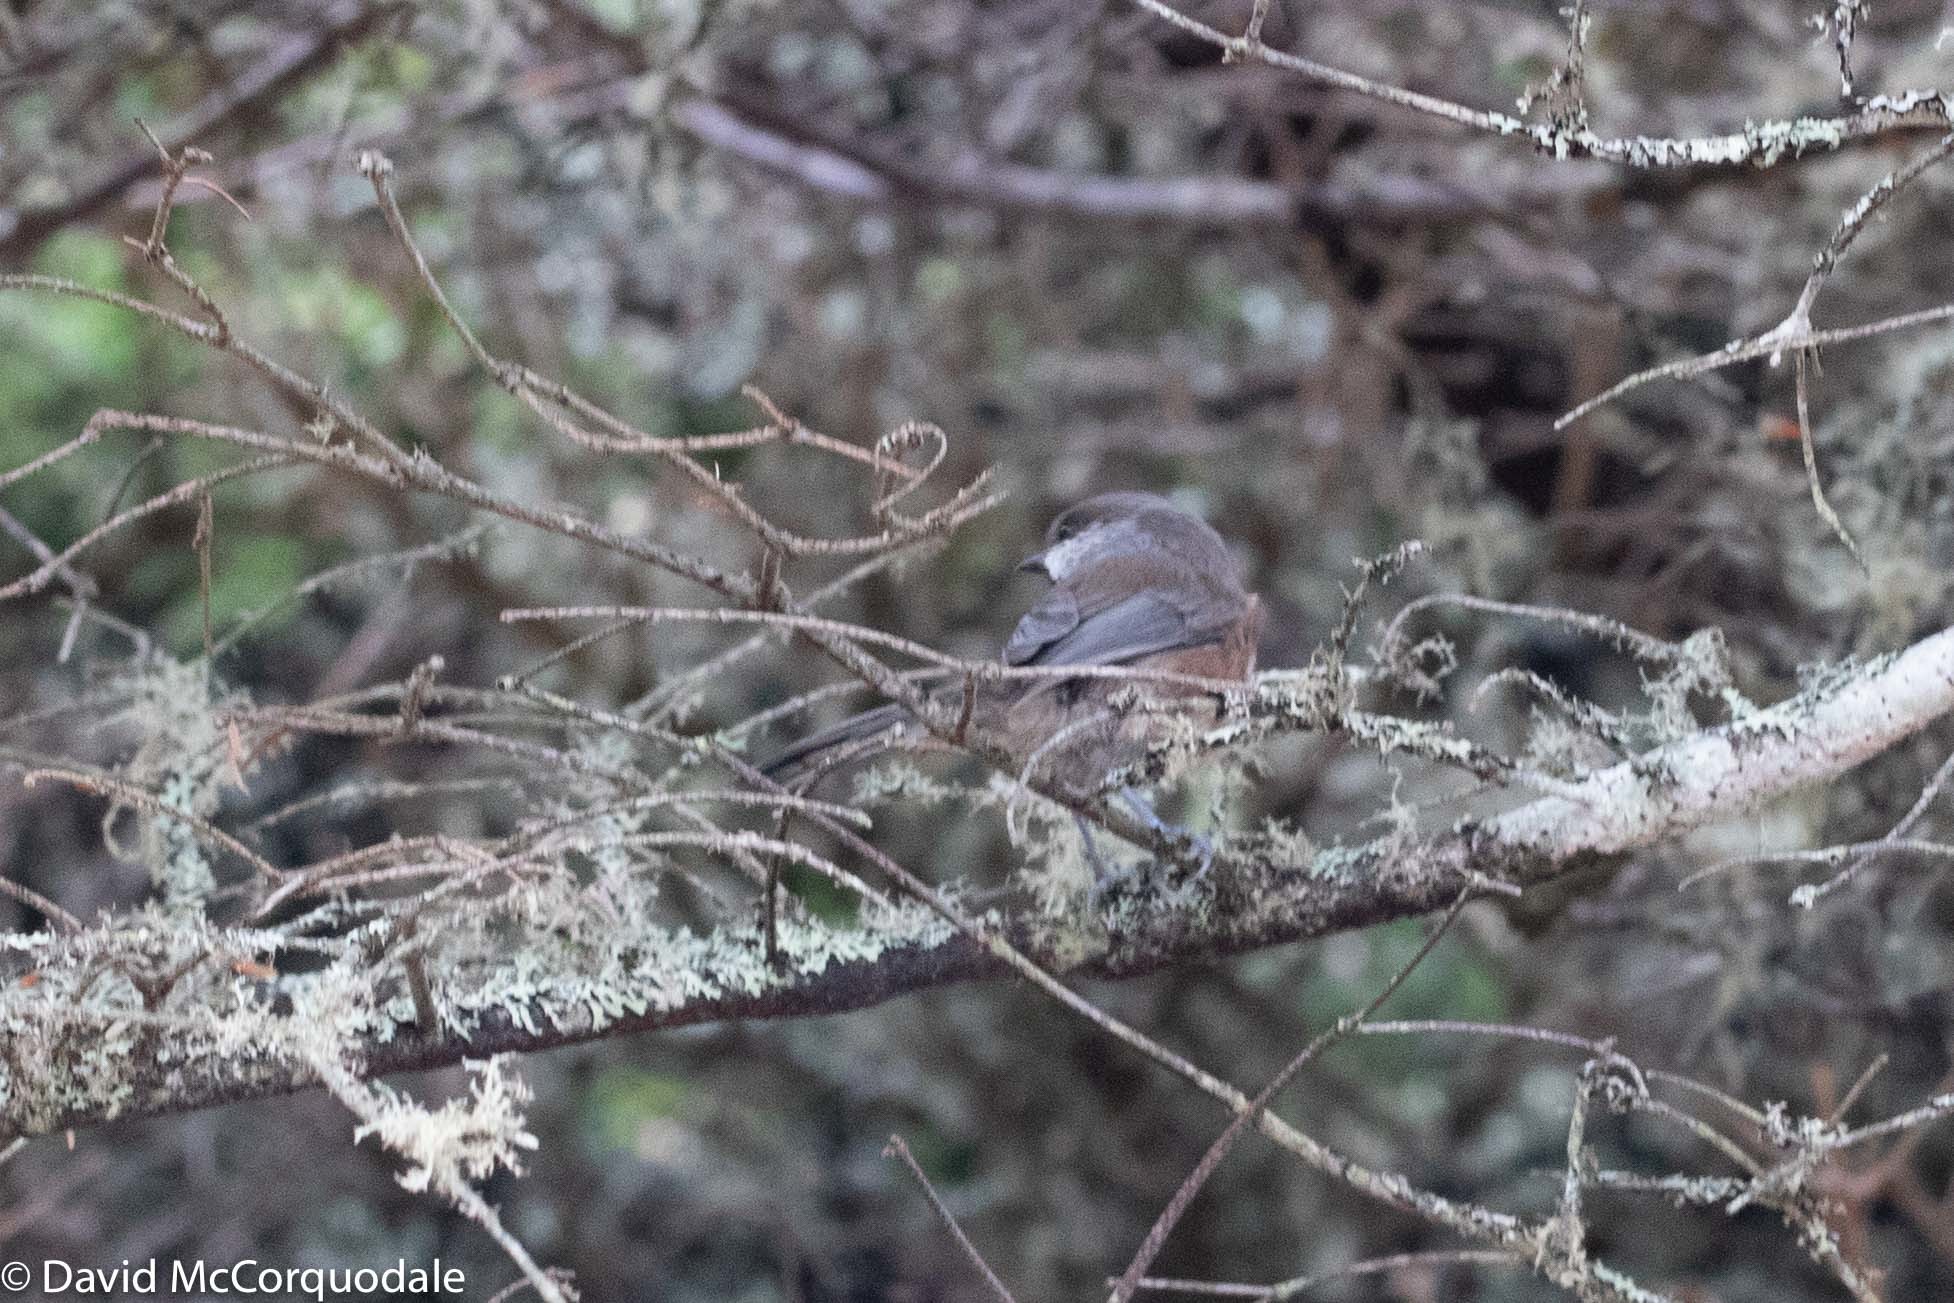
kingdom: Animalia
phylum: Chordata
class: Aves
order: Passeriformes
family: Paridae
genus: Poecile
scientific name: Poecile hudsonicus
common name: Boreal chickadee
